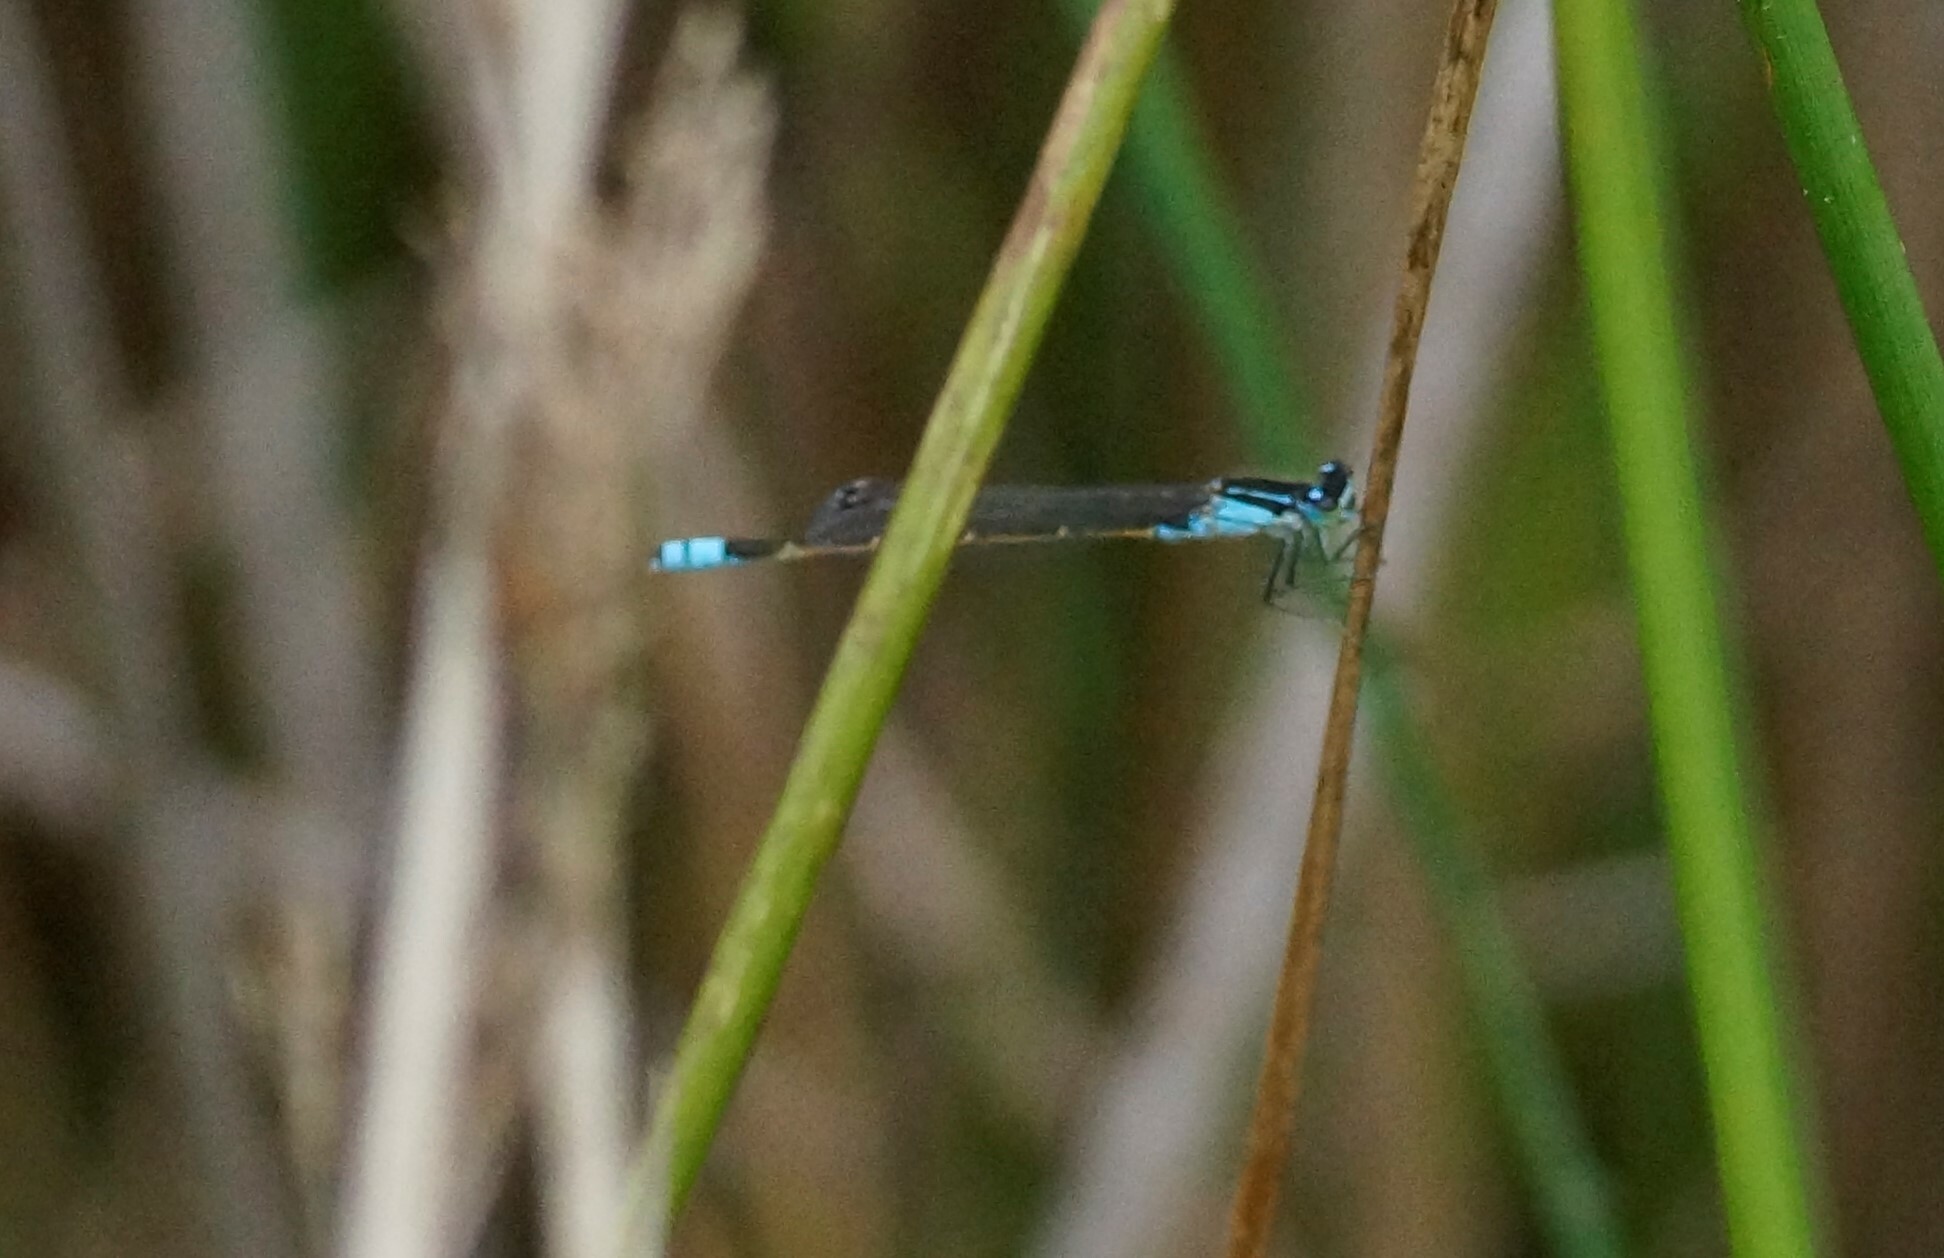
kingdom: Animalia
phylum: Arthropoda
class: Insecta
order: Odonata
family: Coenagrionidae
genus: Ischnura
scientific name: Ischnura heterosticta
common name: Common bluetail
